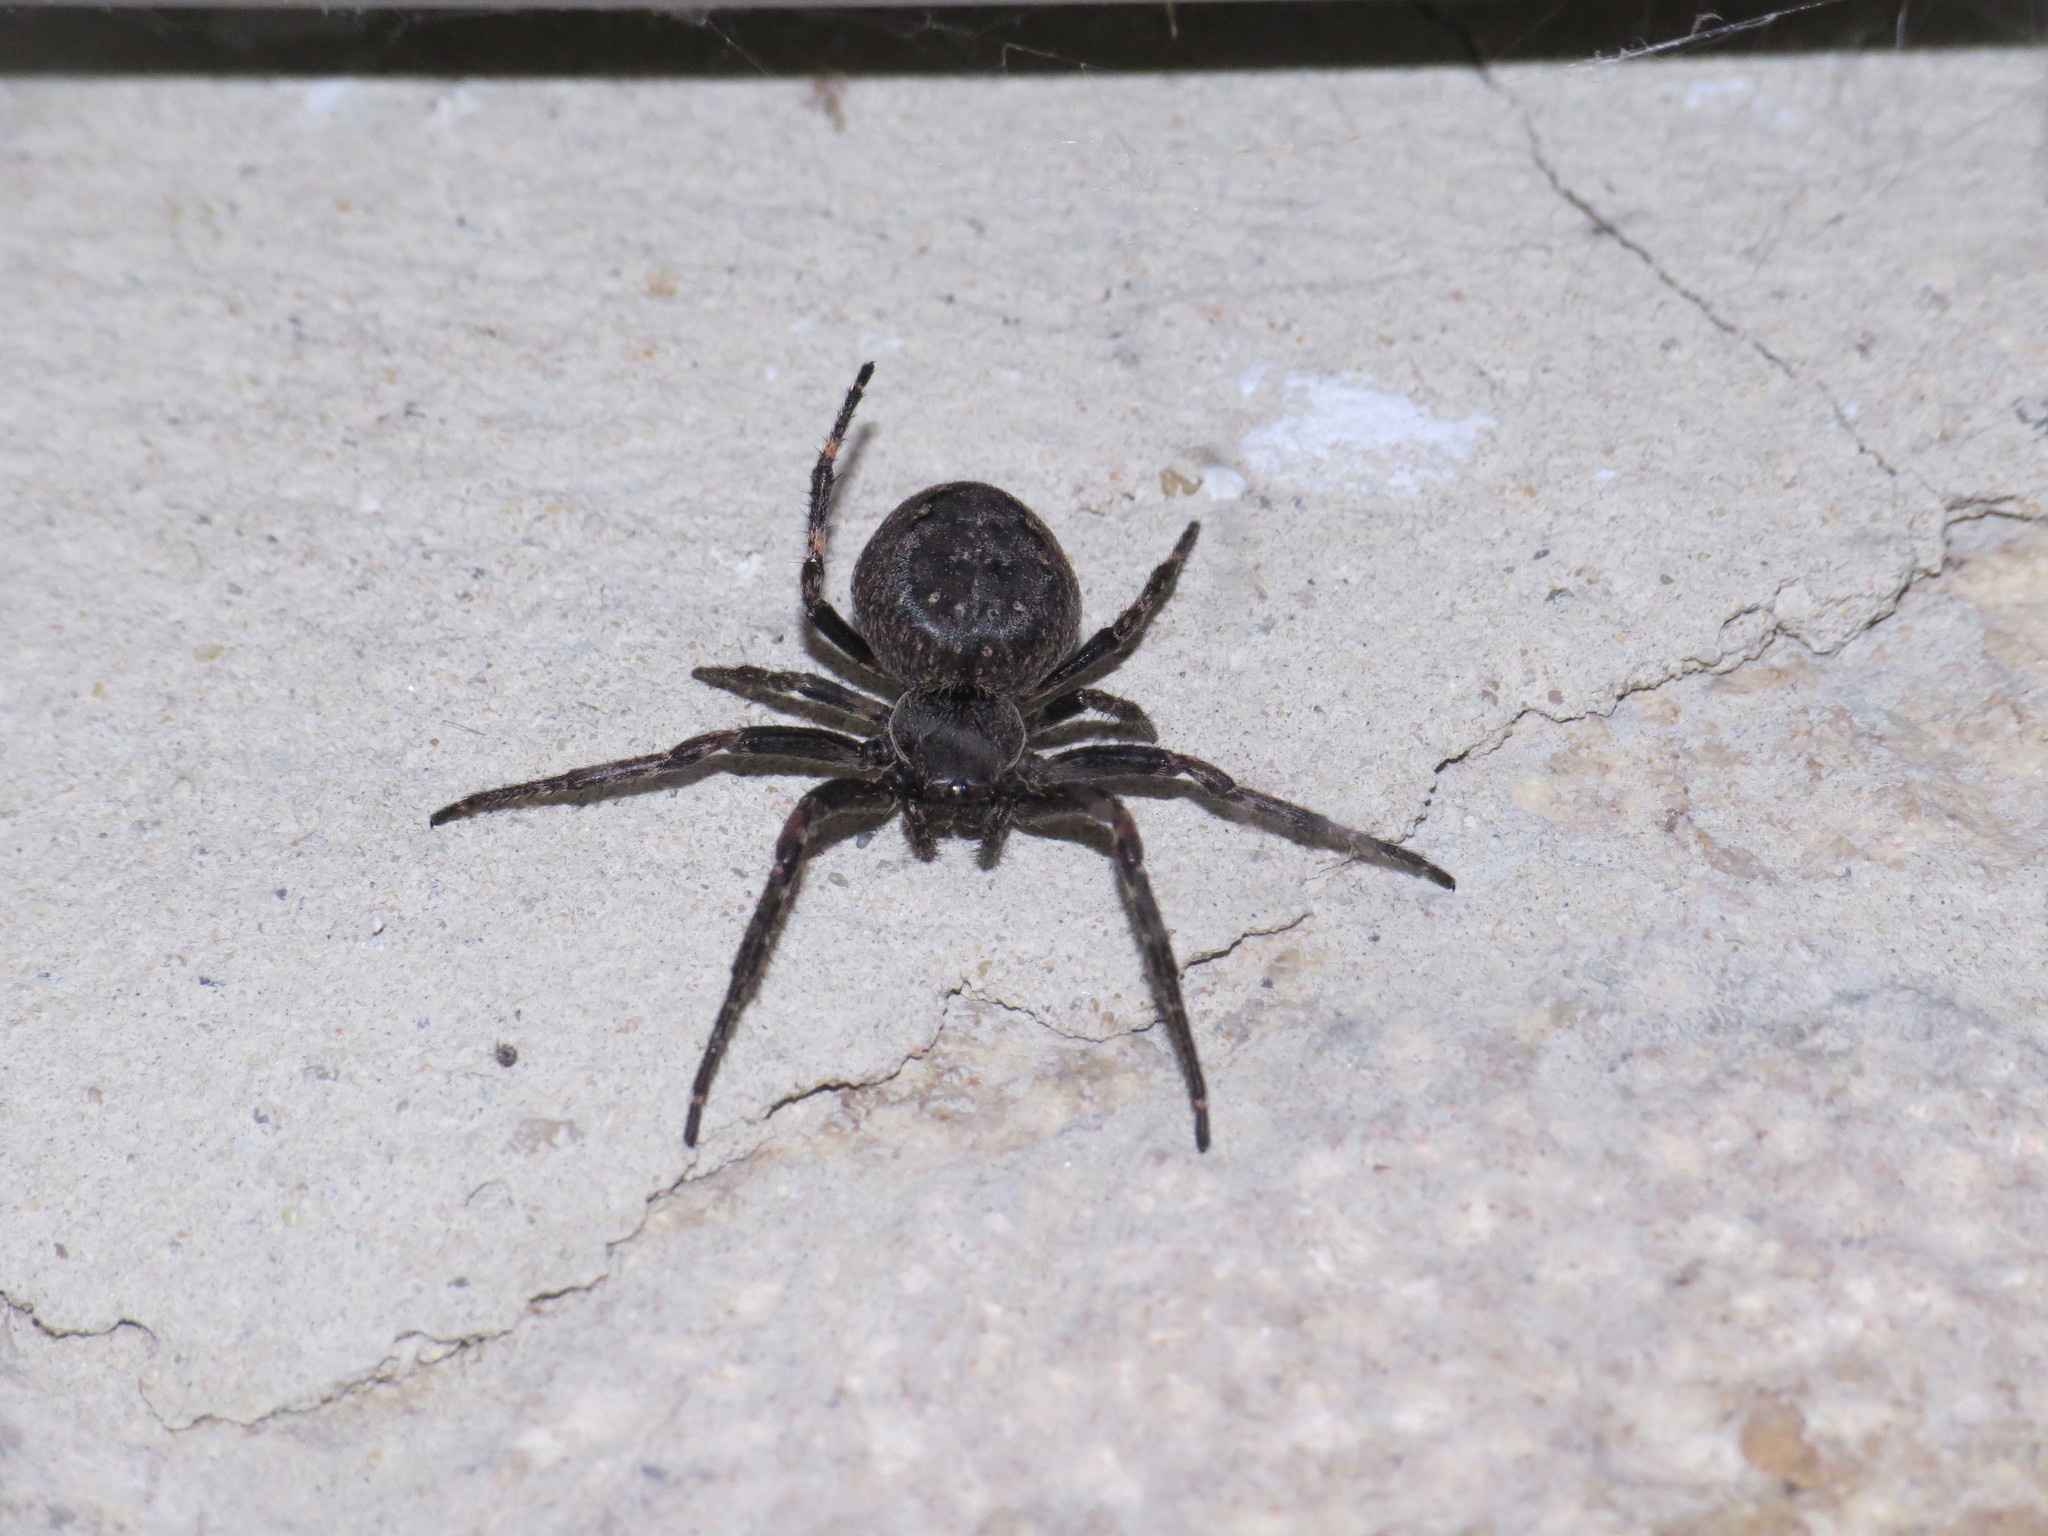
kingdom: Animalia
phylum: Arthropoda
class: Arachnida
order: Araneae
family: Araneidae
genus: Nuctenea
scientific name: Nuctenea umbratica
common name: Toad spider
